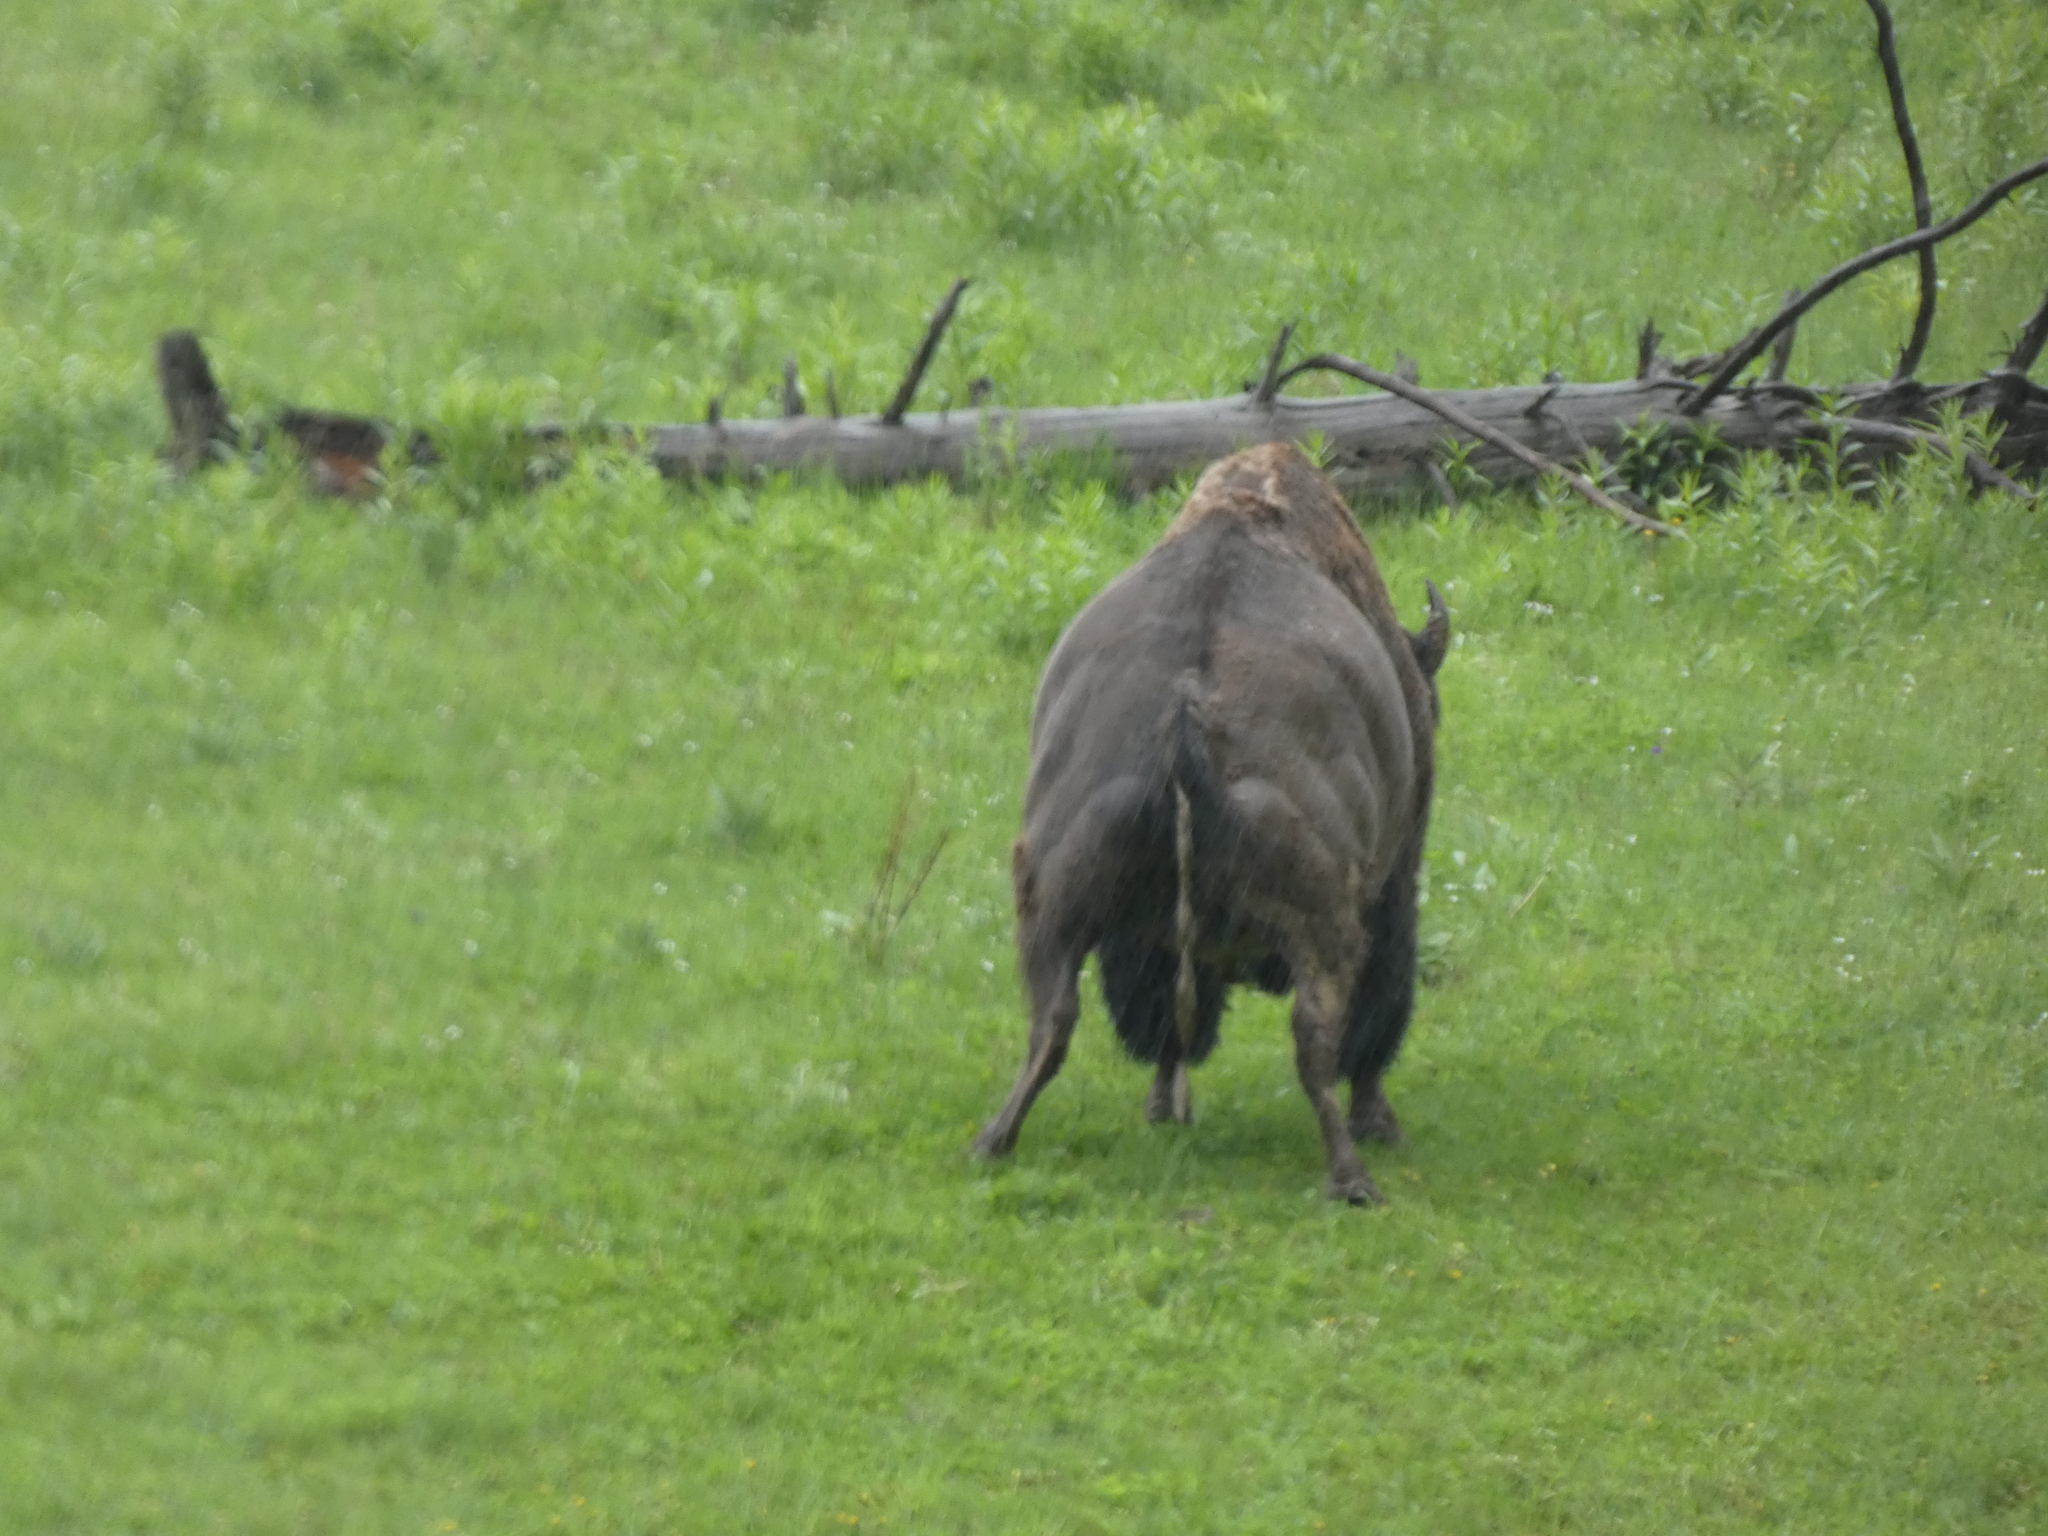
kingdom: Animalia
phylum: Chordata
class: Mammalia
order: Artiodactyla
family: Bovidae
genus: Bison
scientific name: Bison bison
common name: American bison
